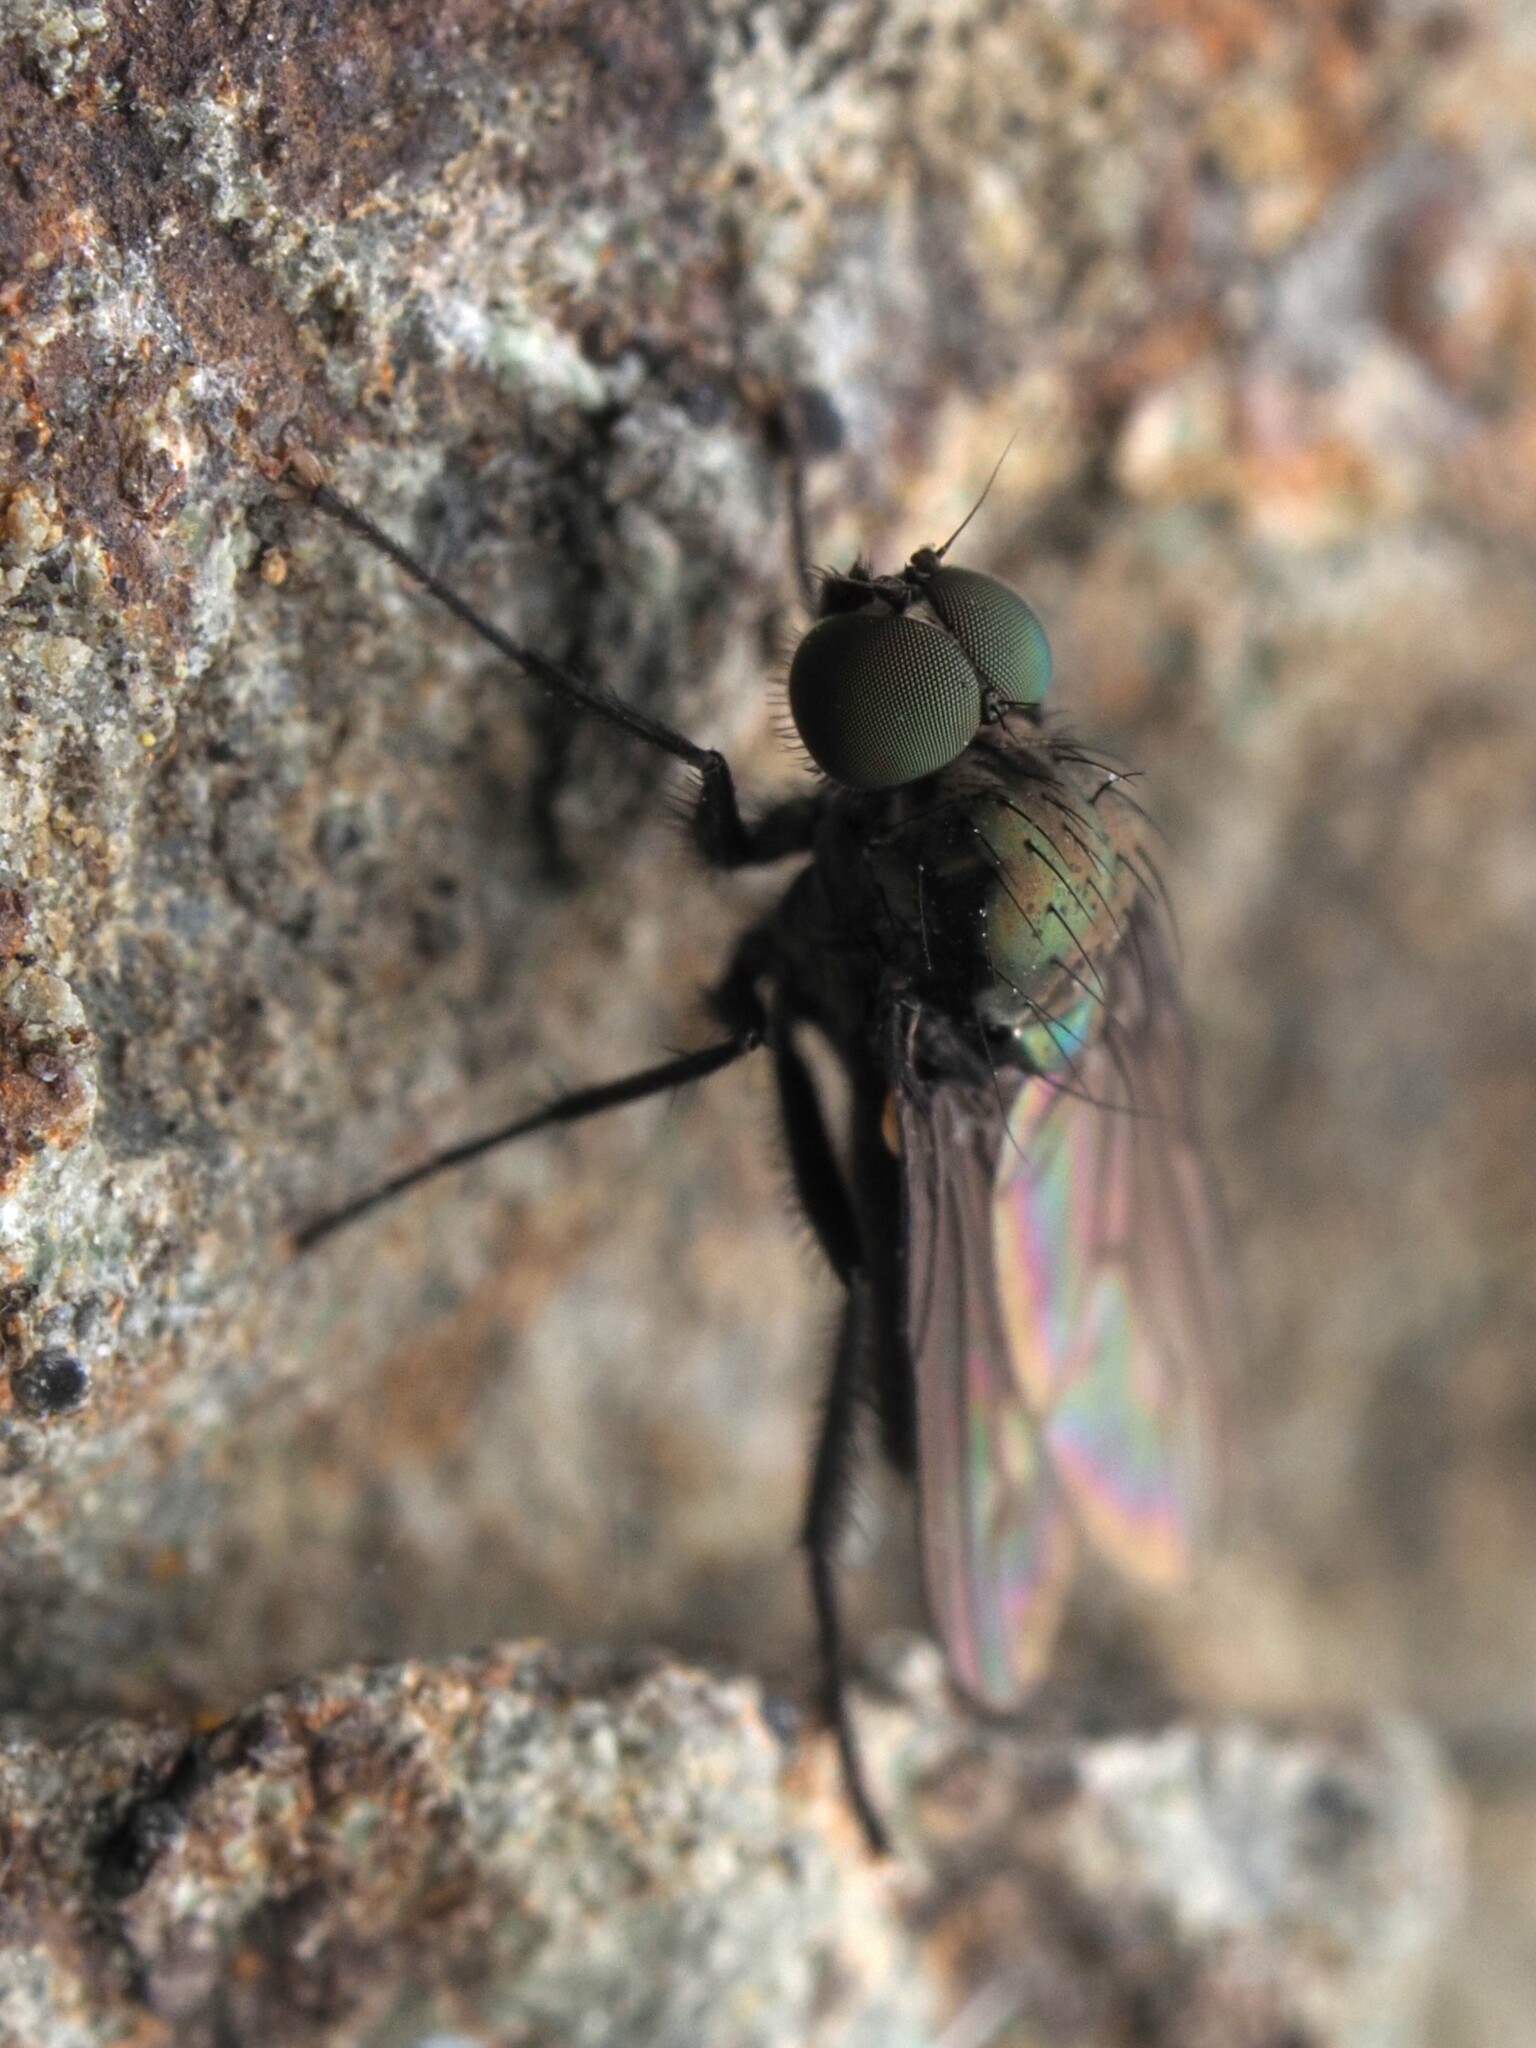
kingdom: Animalia
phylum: Arthropoda
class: Insecta
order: Diptera
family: Dolichopodidae
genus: Diaphorus
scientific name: Diaphorus obscurus
